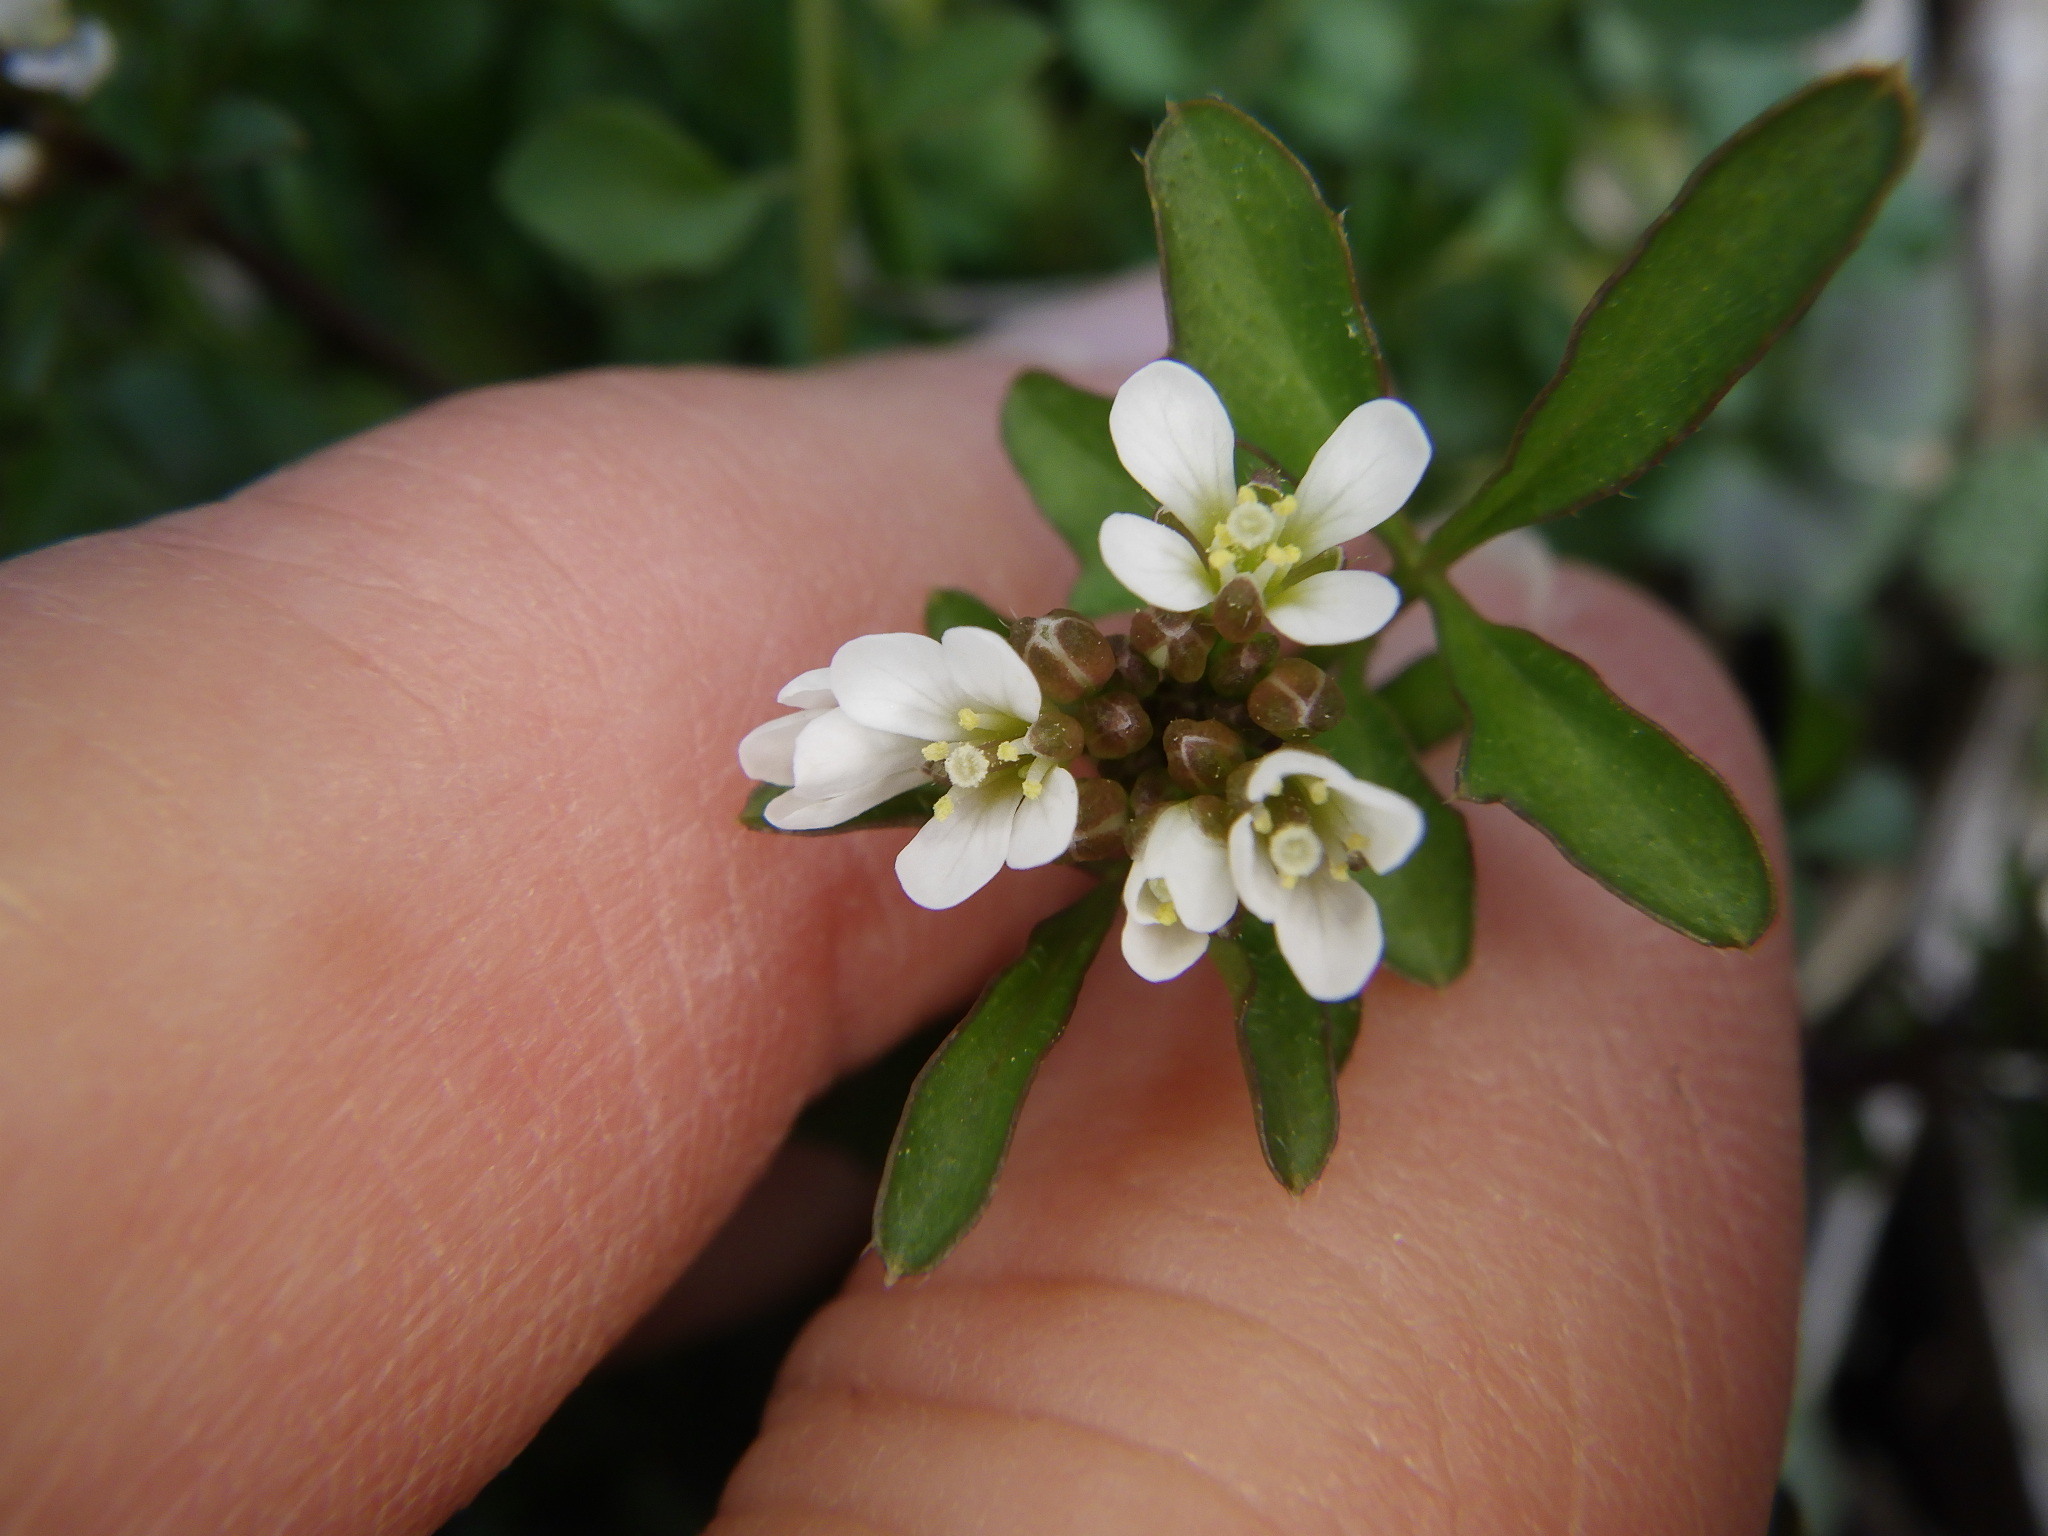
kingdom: Plantae
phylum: Tracheophyta
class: Magnoliopsida
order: Brassicales
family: Brassicaceae
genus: Cardamine
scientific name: Cardamine hirsuta
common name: Hairy bittercress
